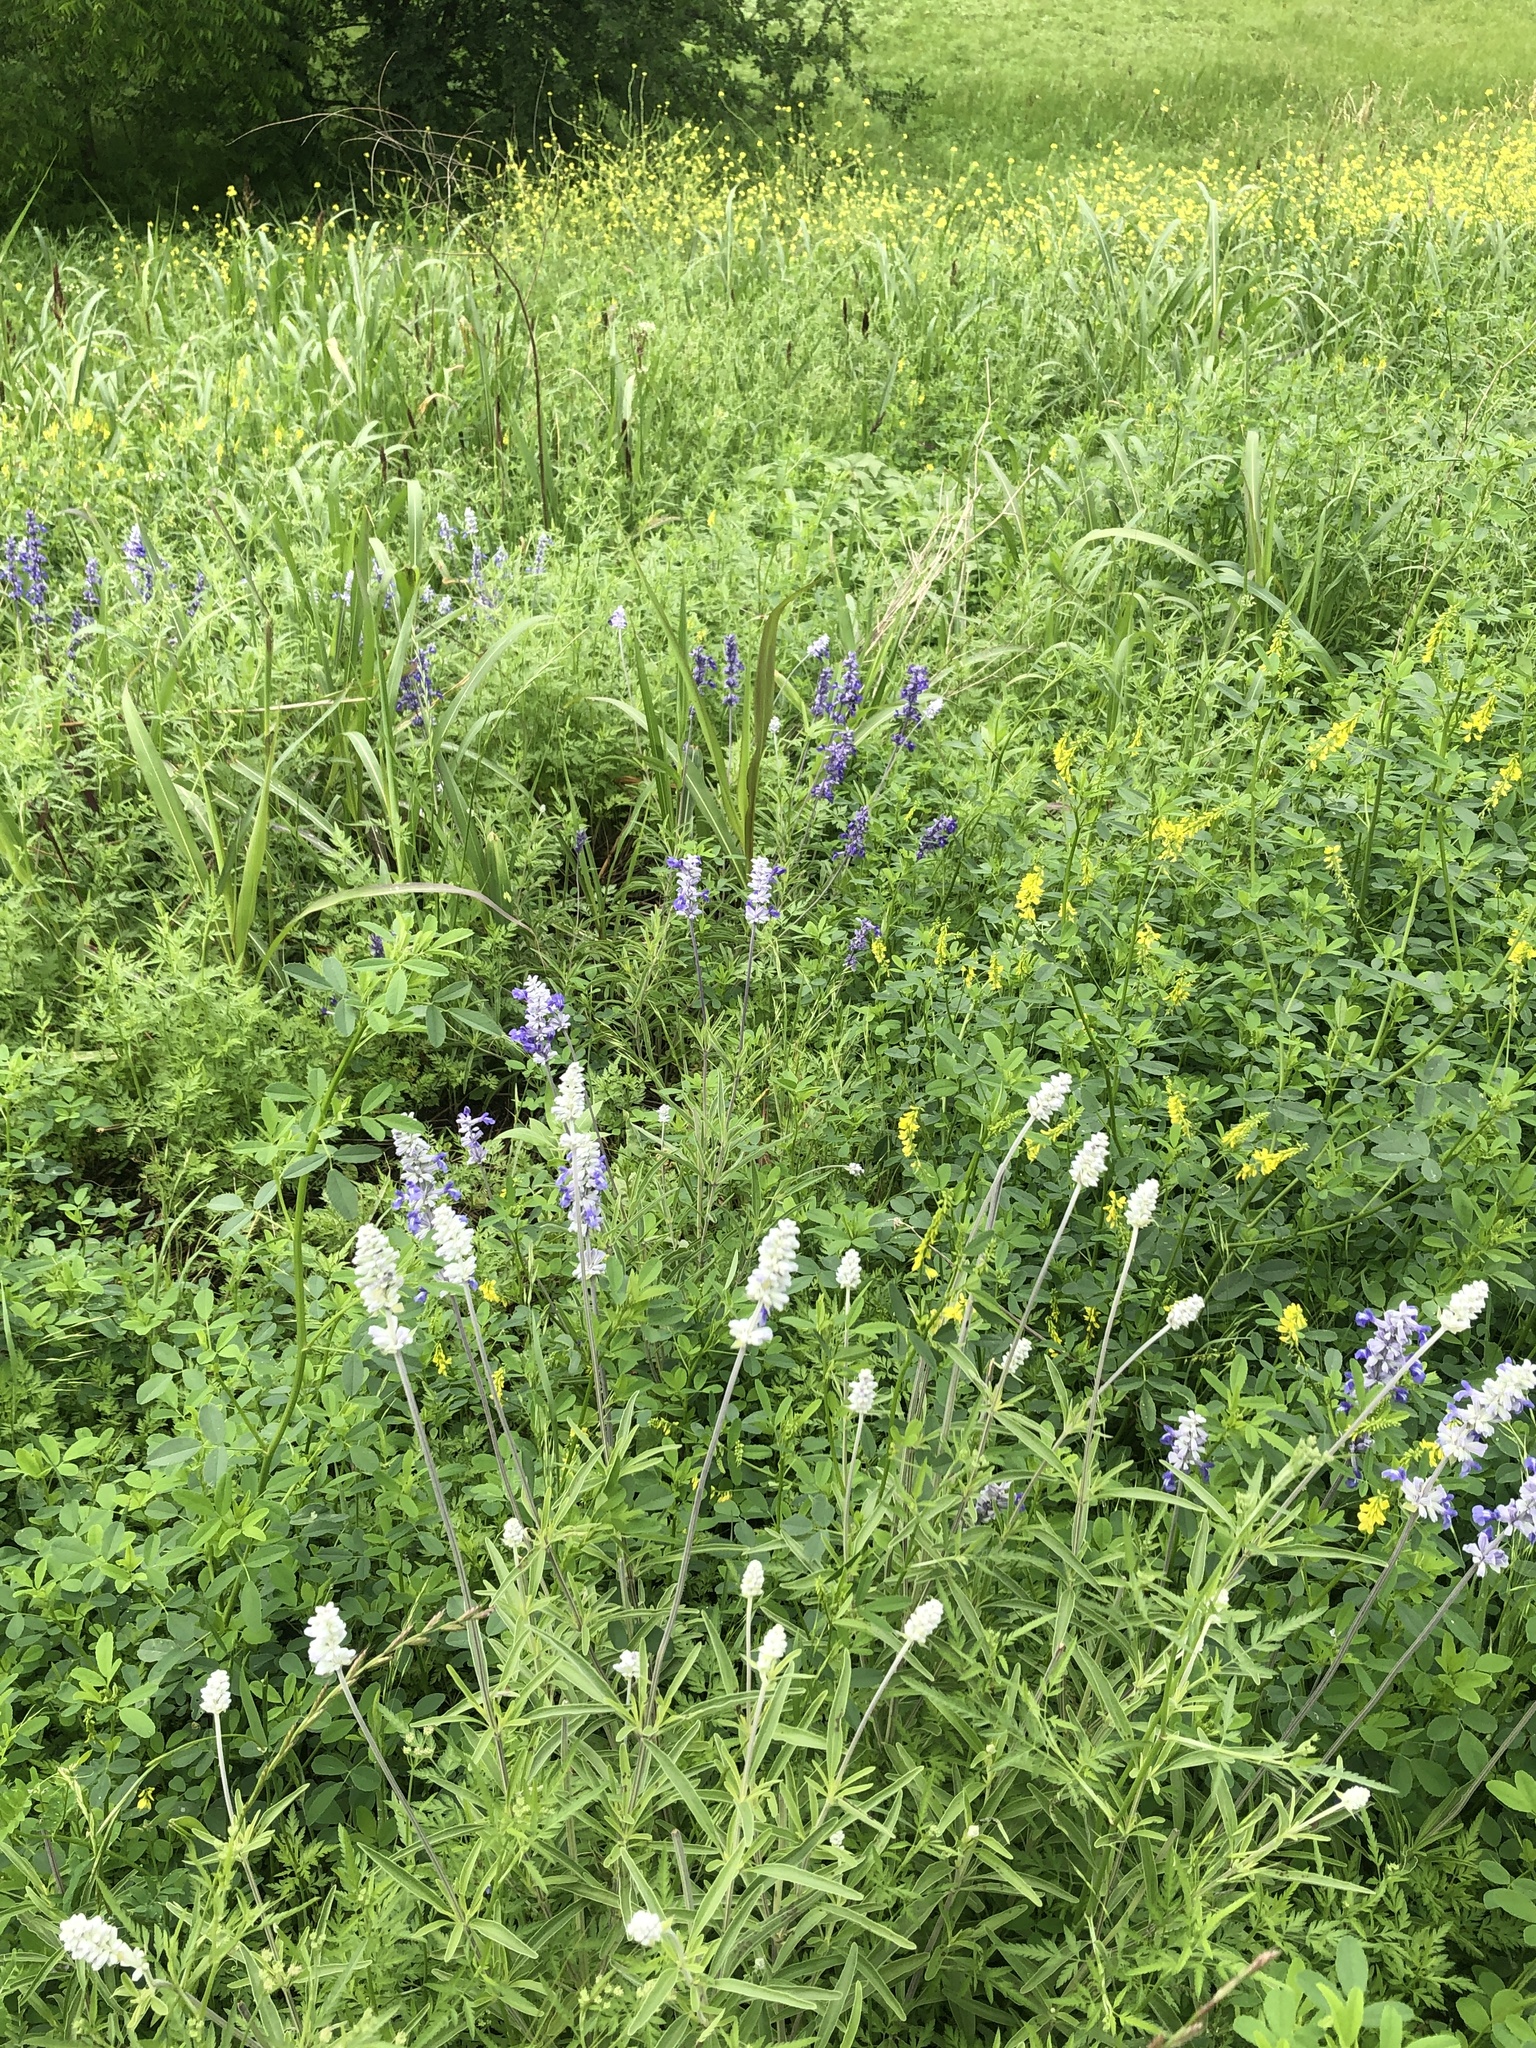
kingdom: Plantae
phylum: Tracheophyta
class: Magnoliopsida
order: Lamiales
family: Lamiaceae
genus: Salvia
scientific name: Salvia farinacea
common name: Mealy sage
